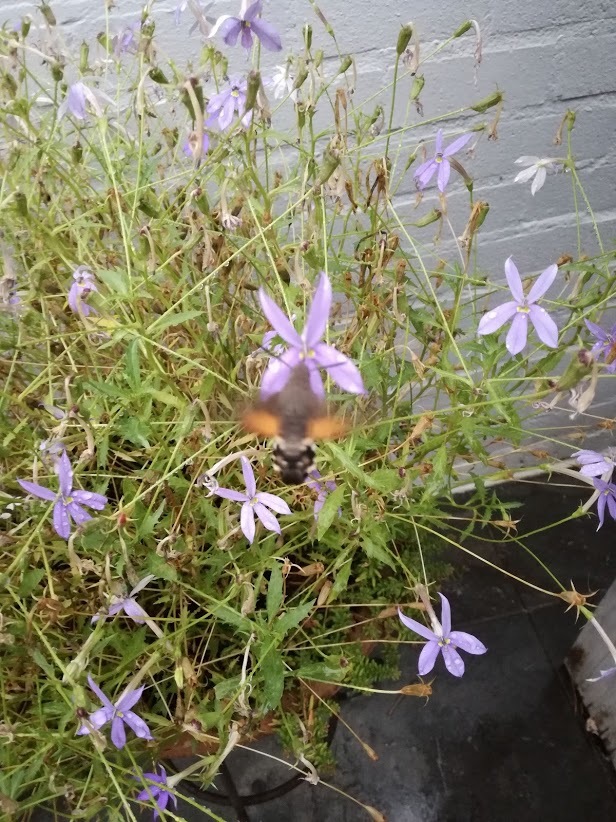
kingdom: Animalia
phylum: Arthropoda
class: Insecta
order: Lepidoptera
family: Sphingidae
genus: Macroglossum
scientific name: Macroglossum stellatarum
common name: Humming-bird hawk-moth
